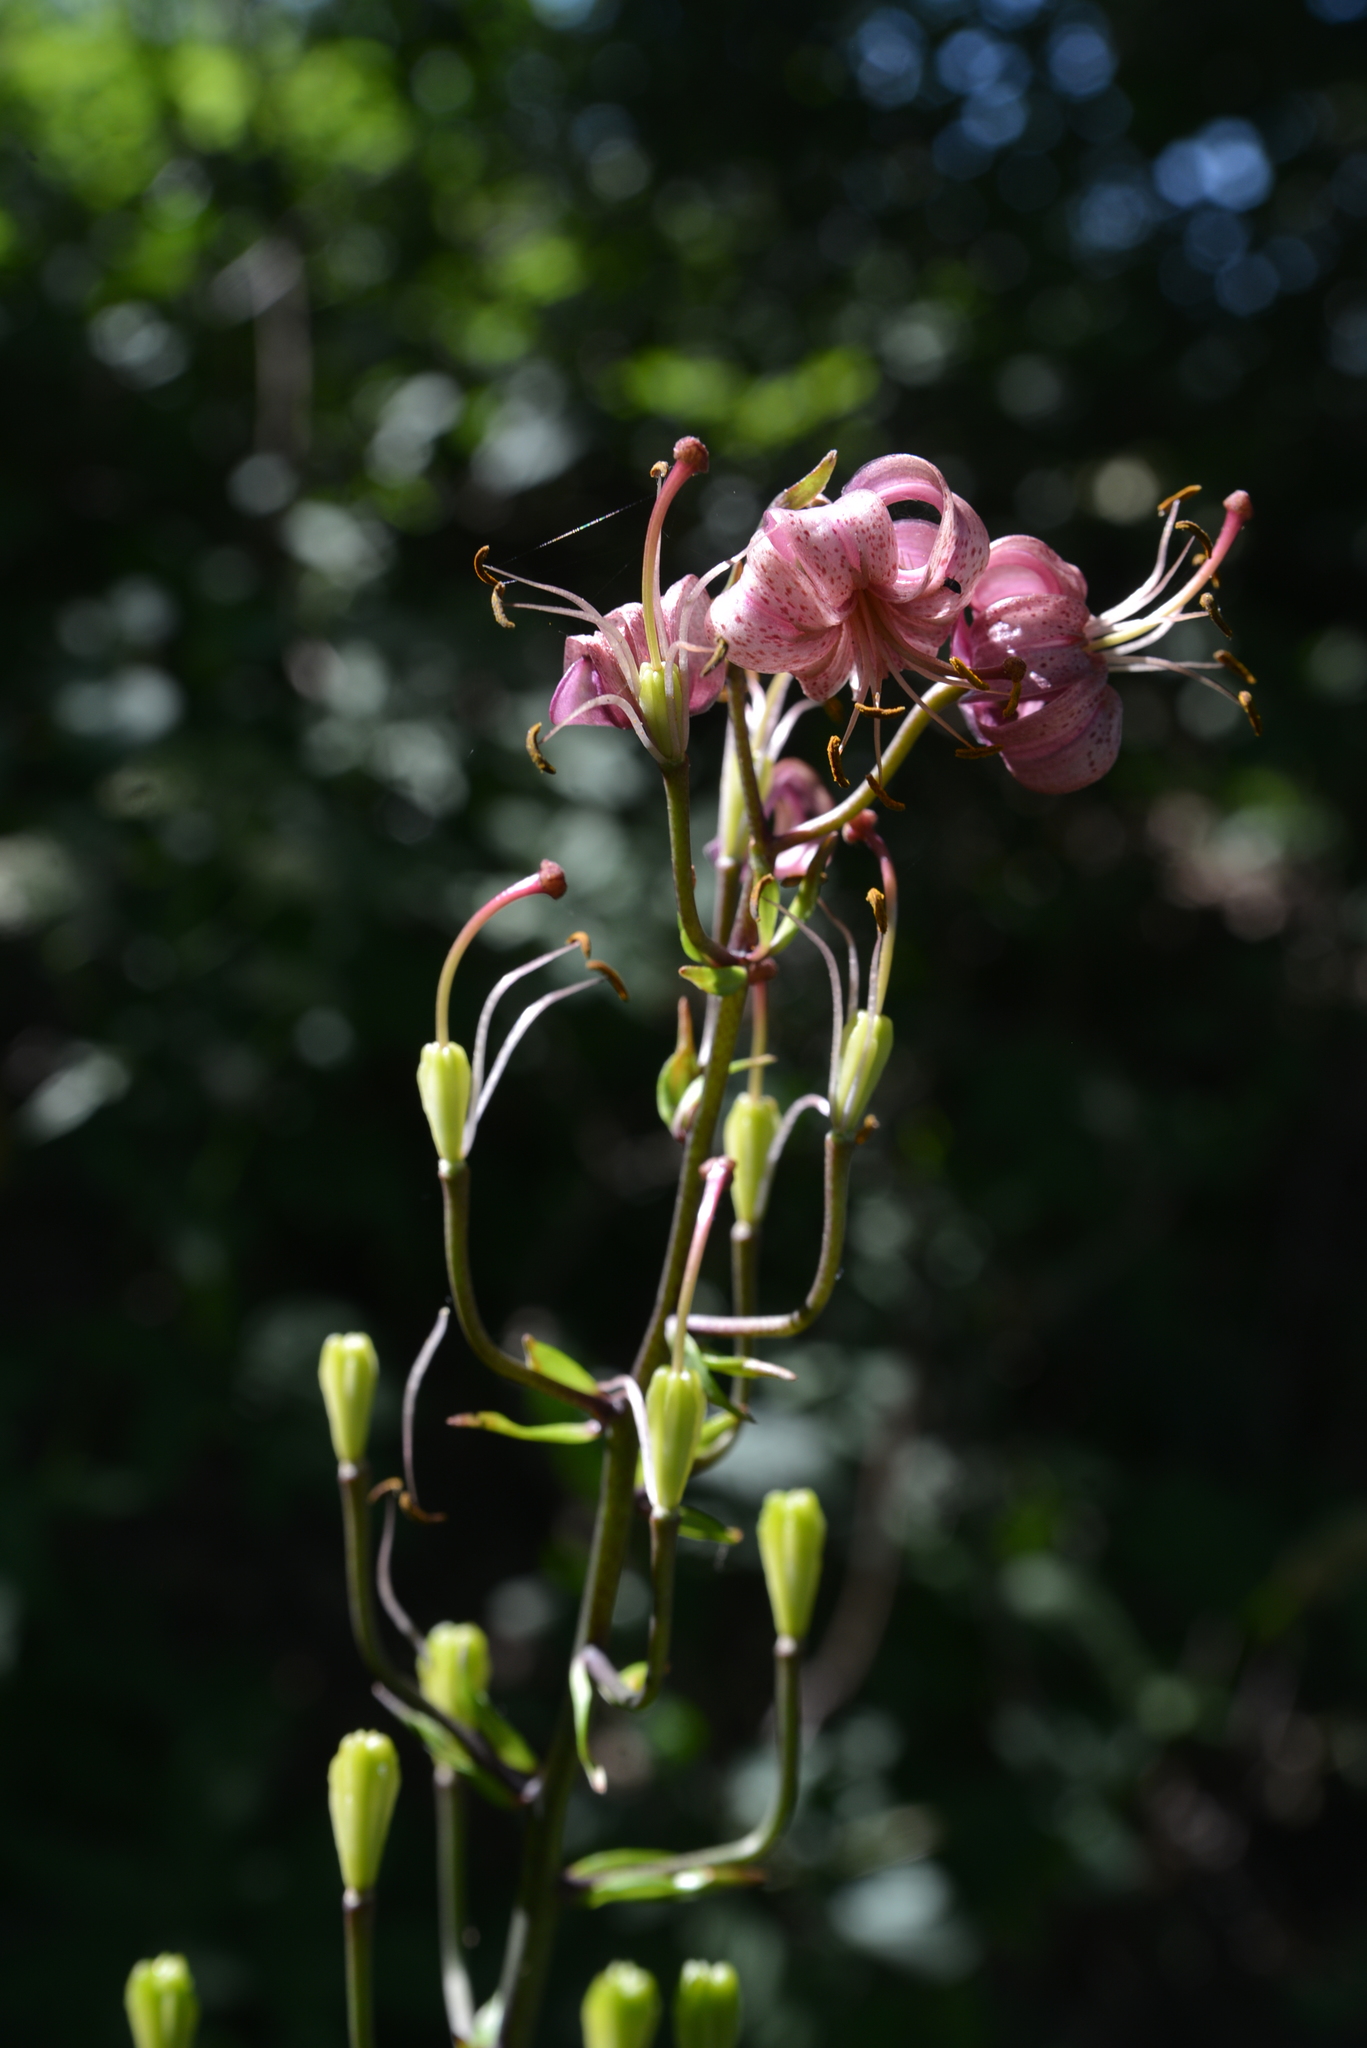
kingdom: Plantae
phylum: Tracheophyta
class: Liliopsida
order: Liliales
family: Liliaceae
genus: Lilium
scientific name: Lilium martagon
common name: Martagon lily
